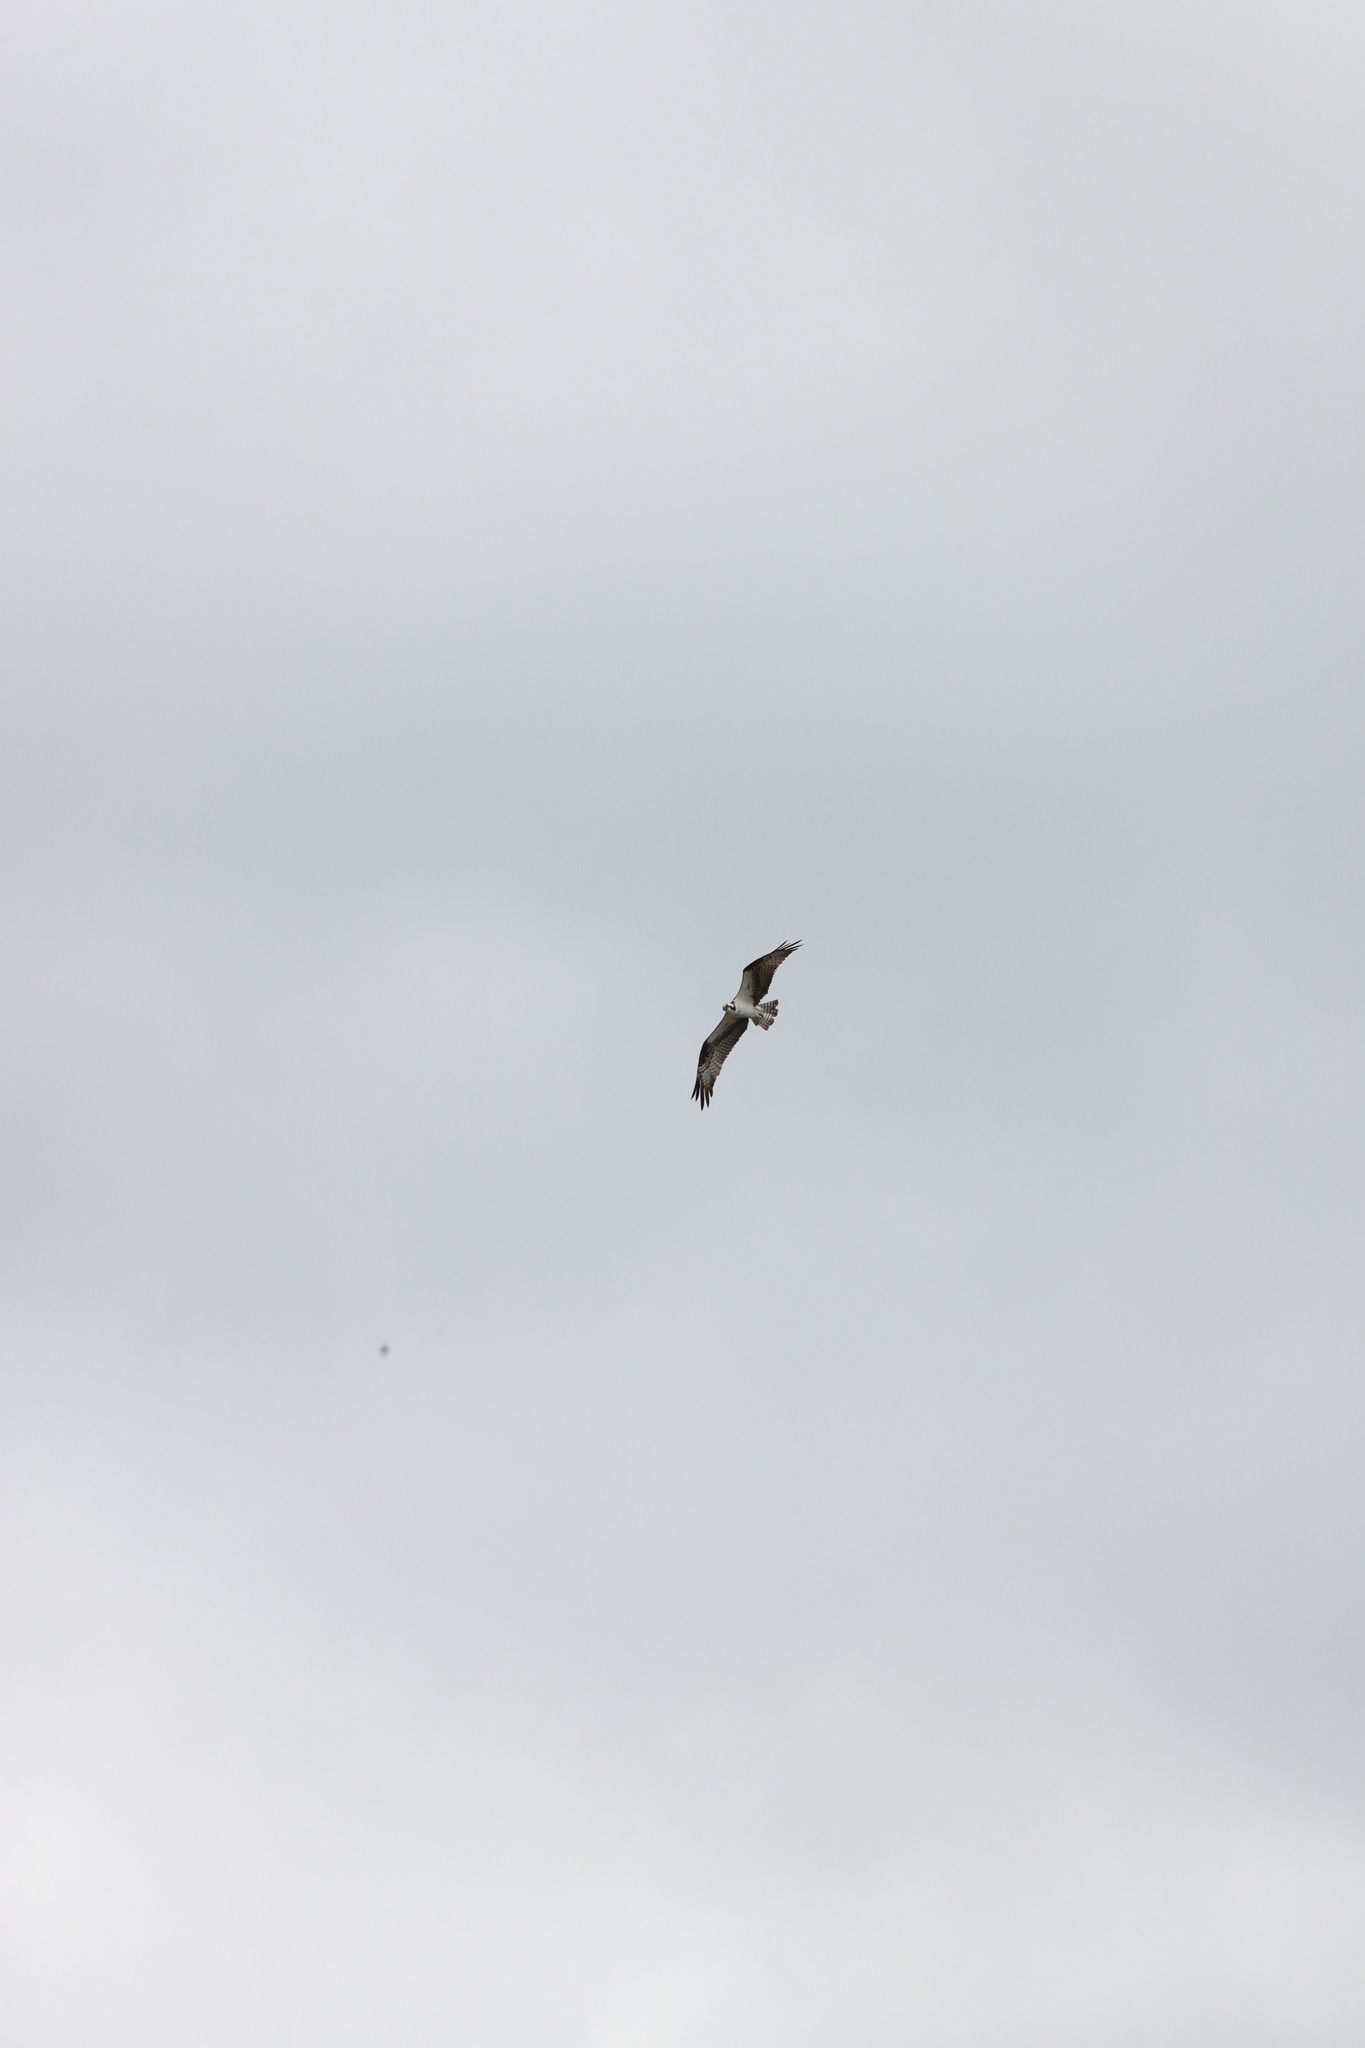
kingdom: Animalia
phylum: Chordata
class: Aves
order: Accipitriformes
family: Pandionidae
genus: Pandion
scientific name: Pandion haliaetus
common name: Osprey
